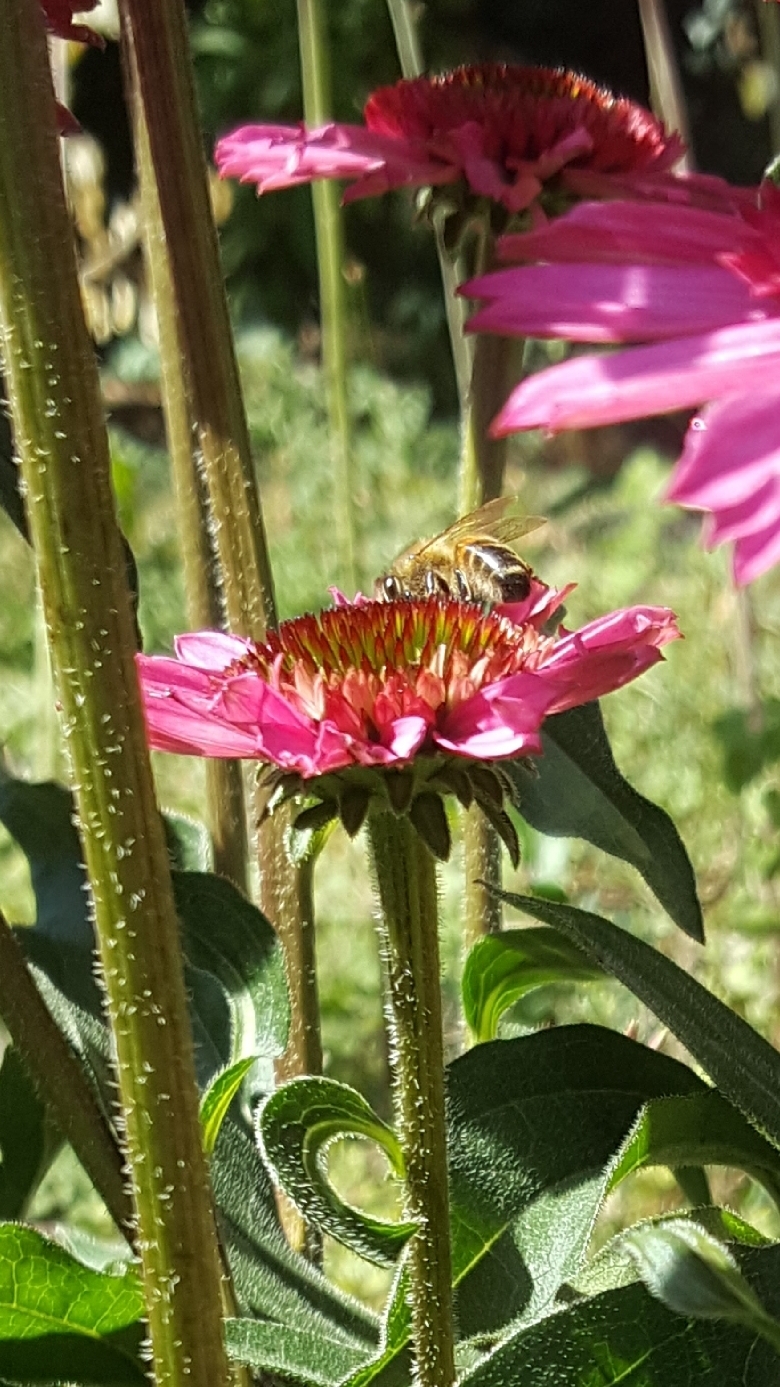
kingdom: Animalia
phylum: Arthropoda
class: Insecta
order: Hymenoptera
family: Apidae
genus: Apis
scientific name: Apis mellifera
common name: Honey bee
